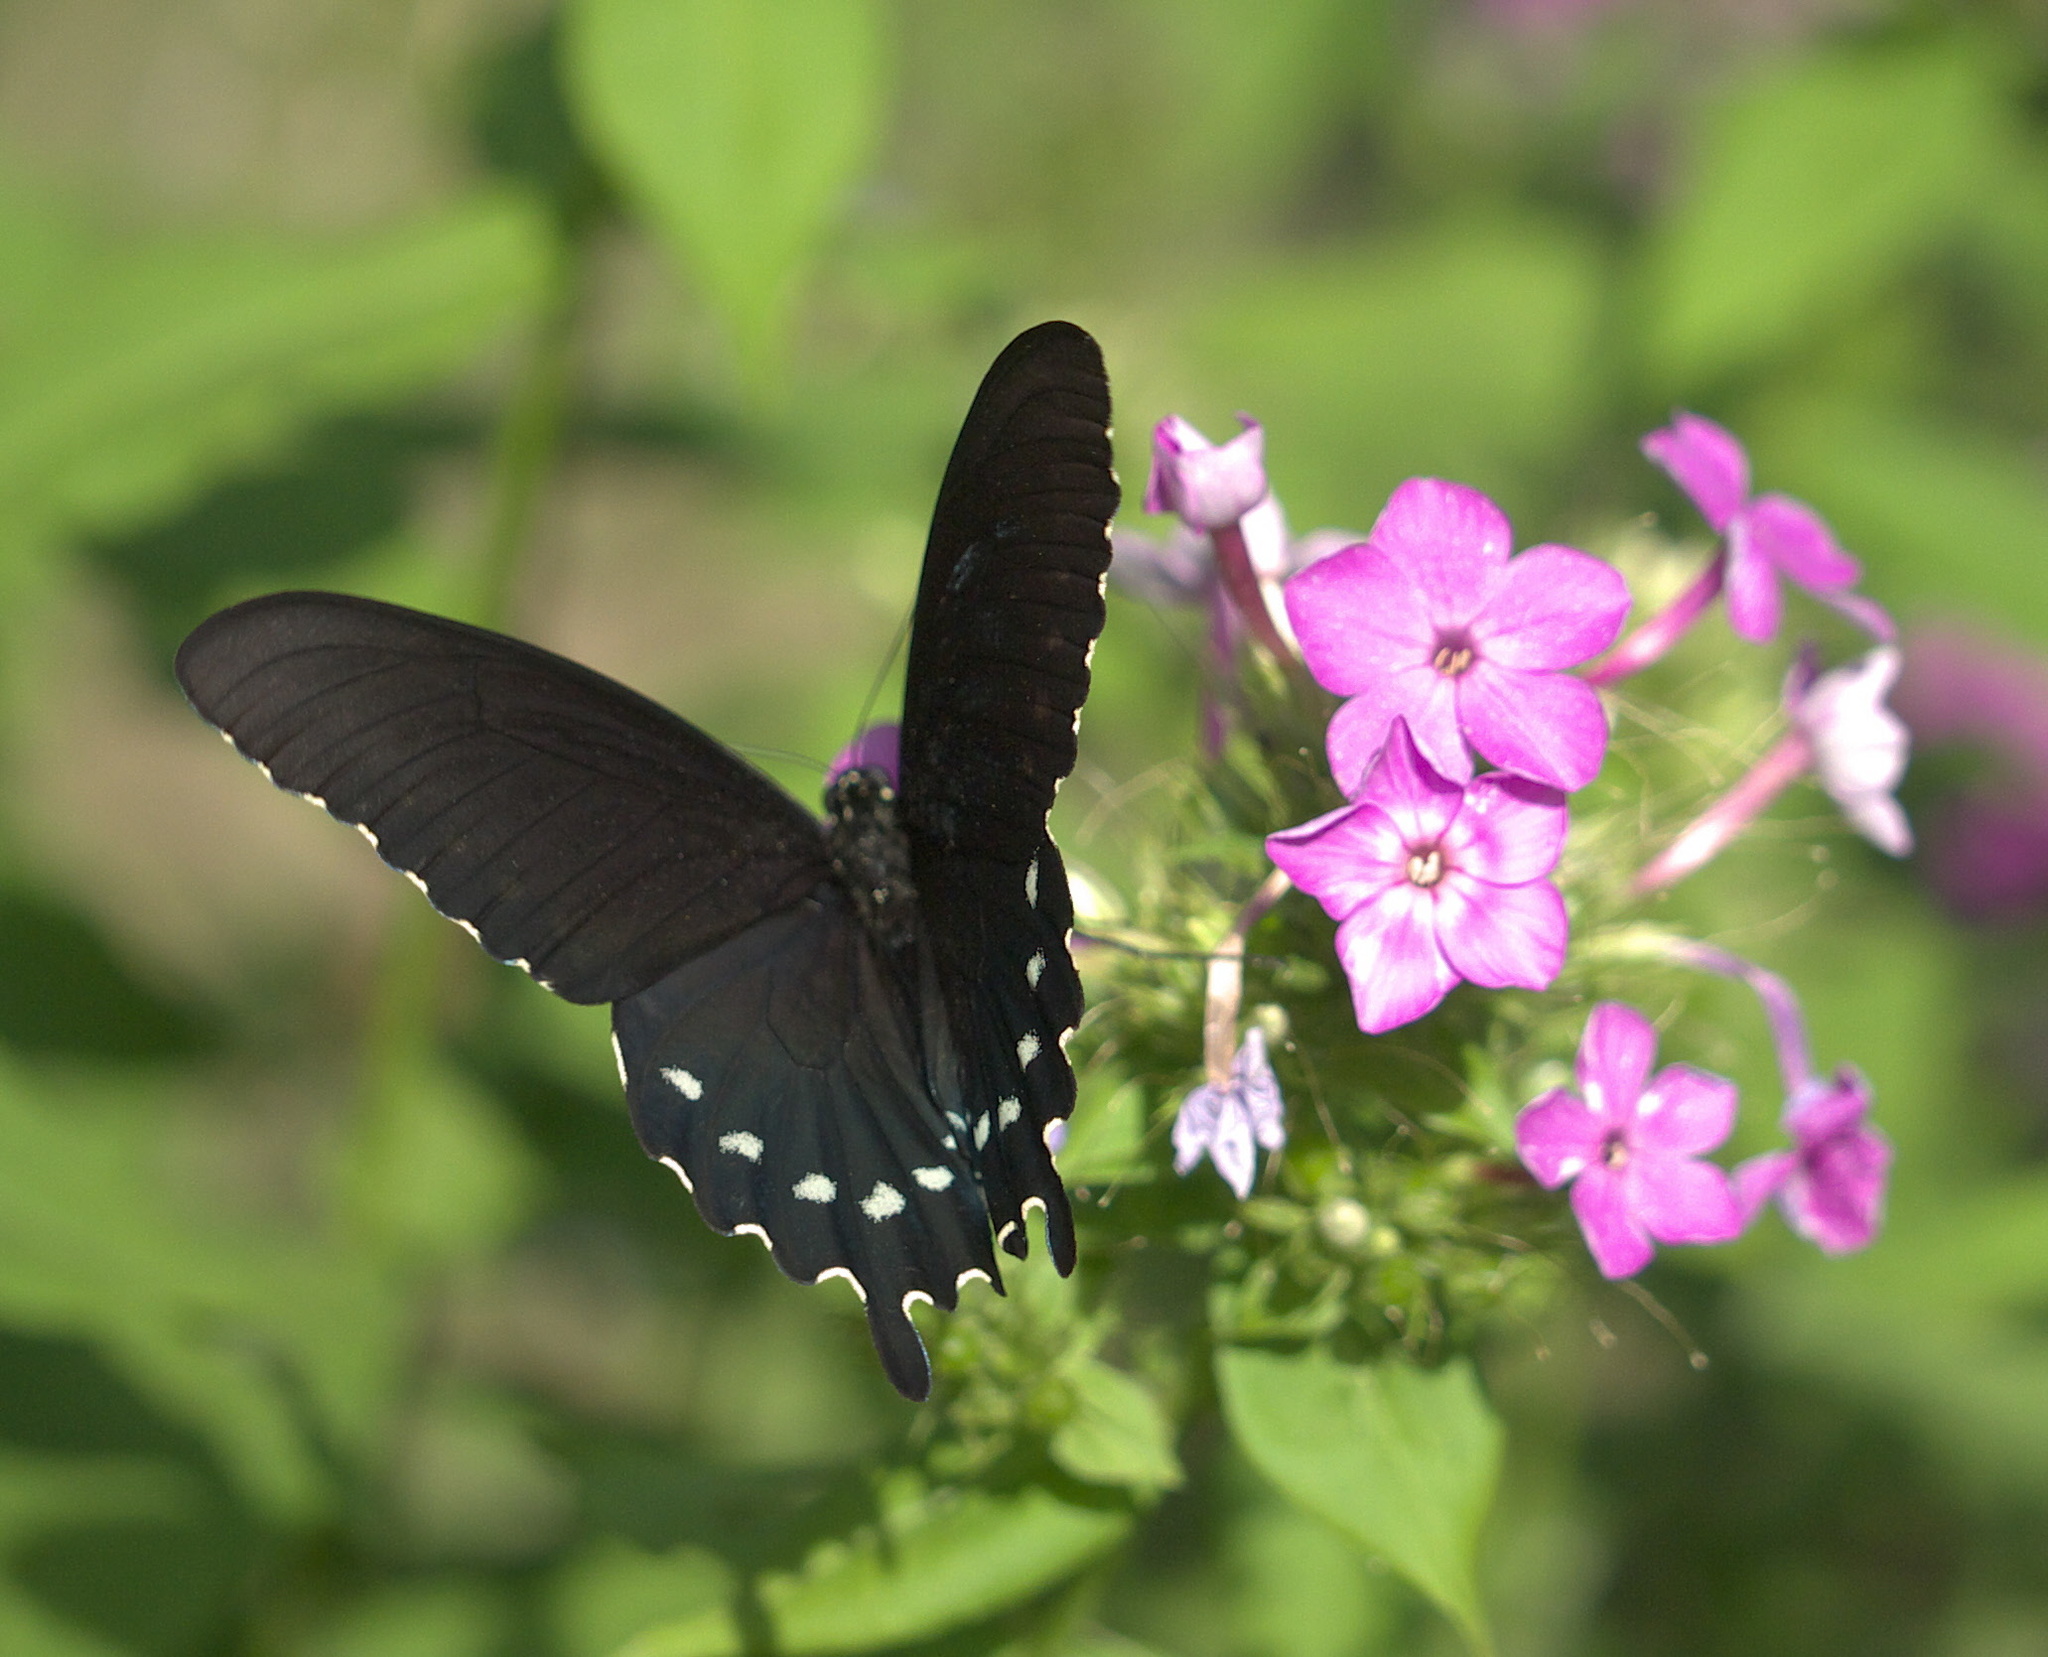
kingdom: Animalia
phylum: Arthropoda
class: Insecta
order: Lepidoptera
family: Papilionidae
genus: Battus
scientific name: Battus philenor
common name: Pipevine swallowtail
